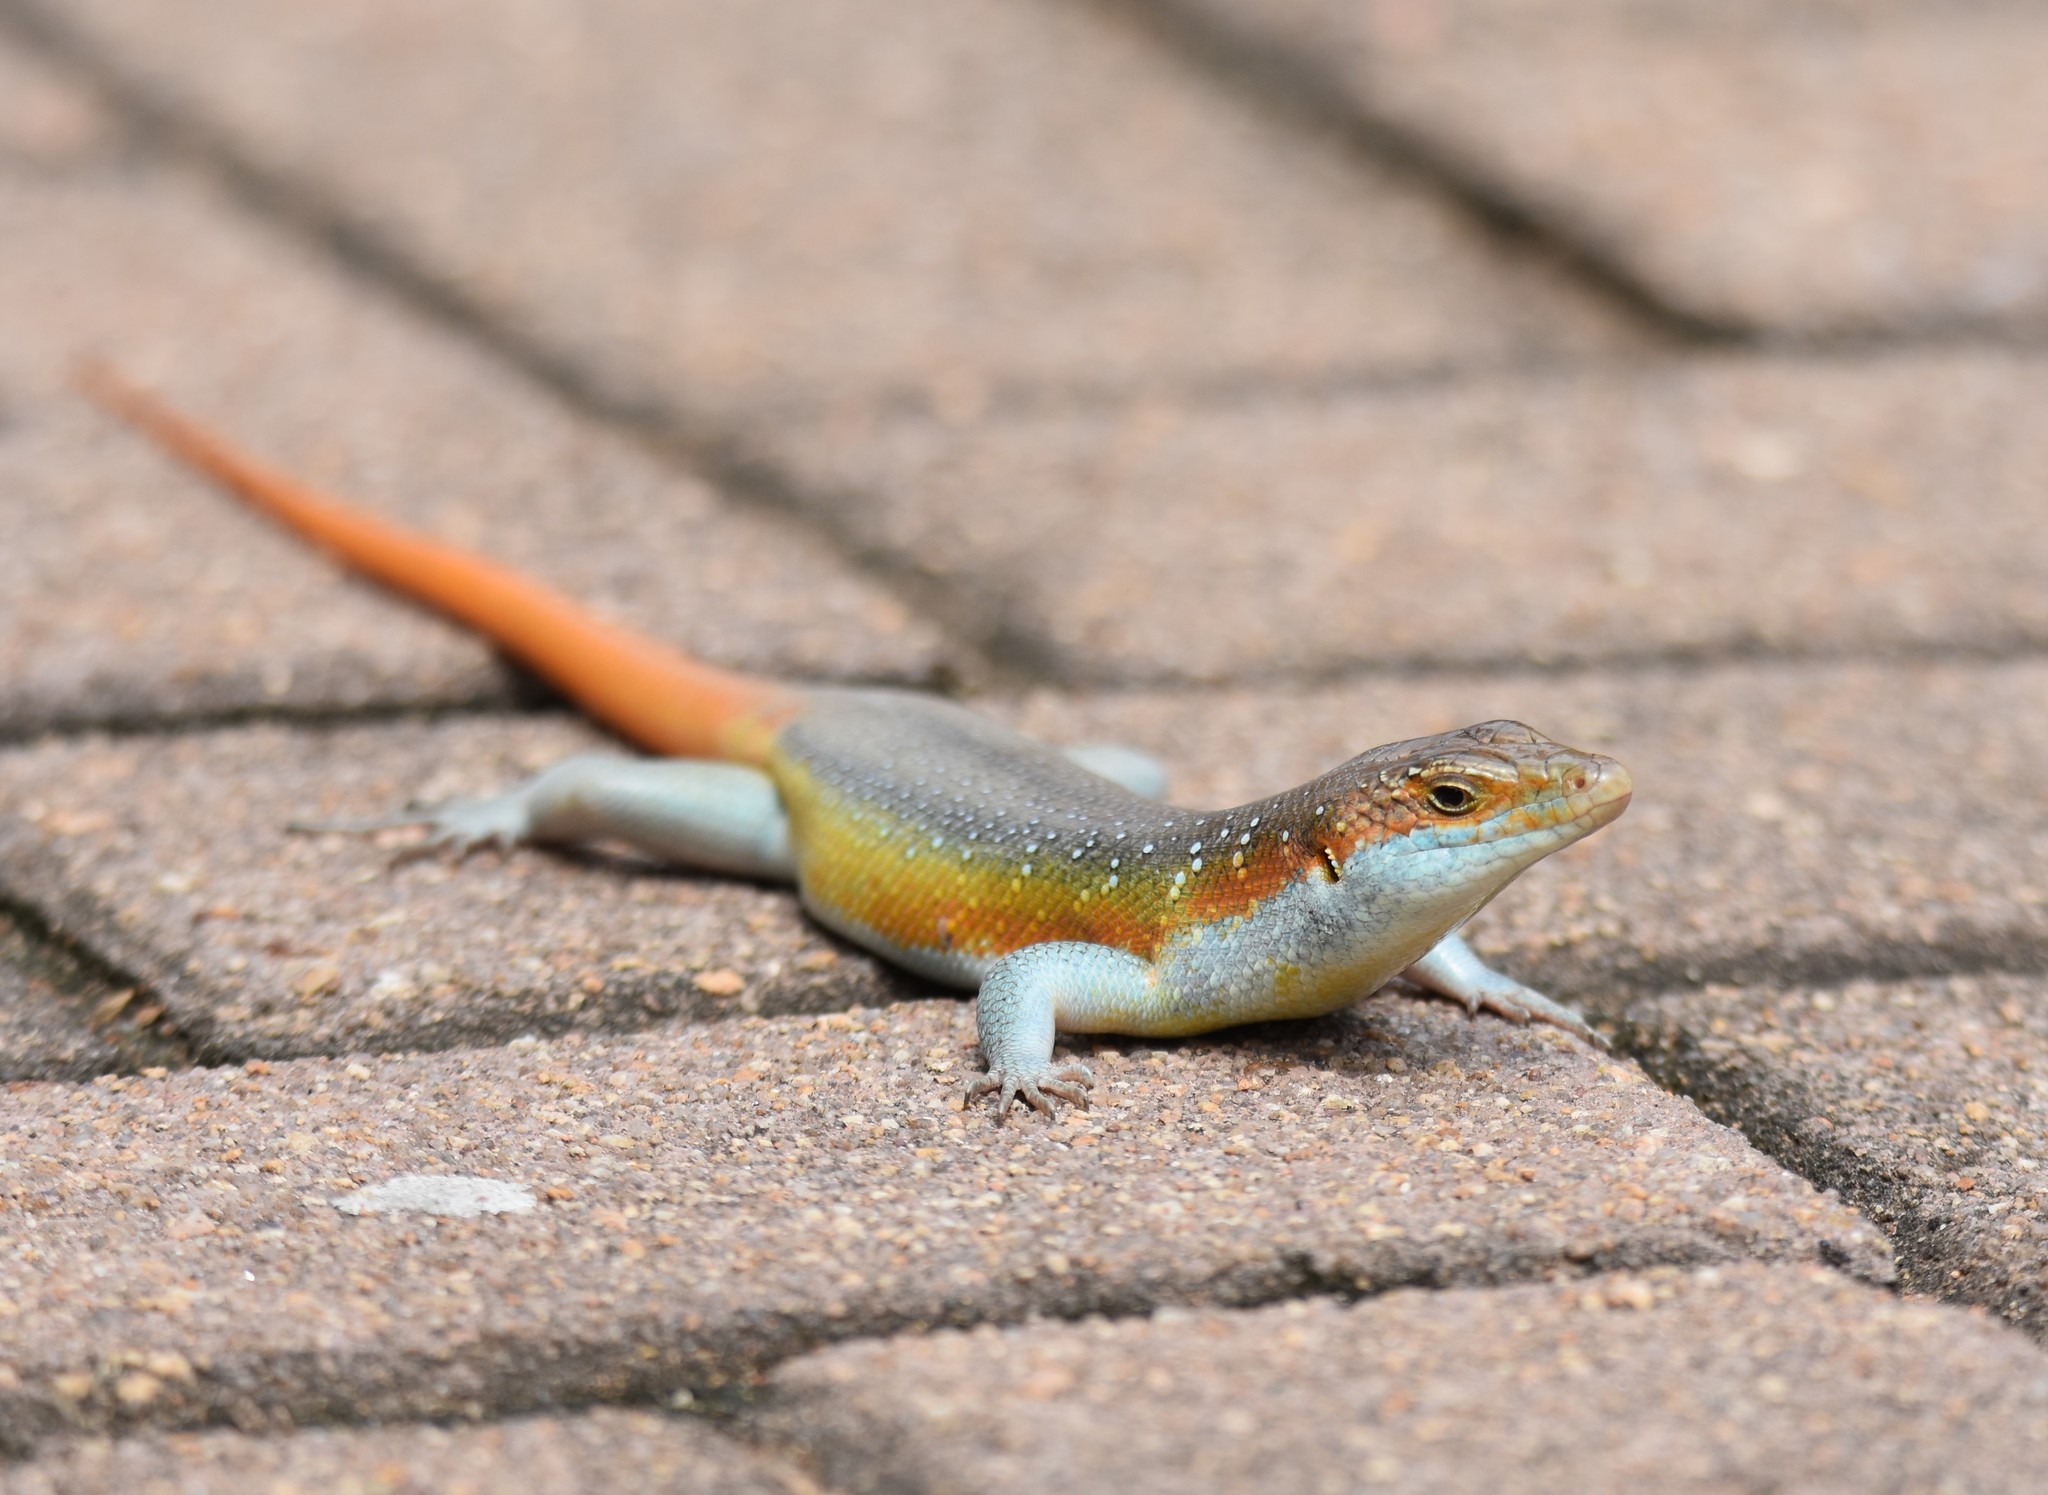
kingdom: Animalia
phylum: Chordata
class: Squamata
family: Scincidae
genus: Trachylepis
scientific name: Trachylepis margaritifera
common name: Rainbow skink
